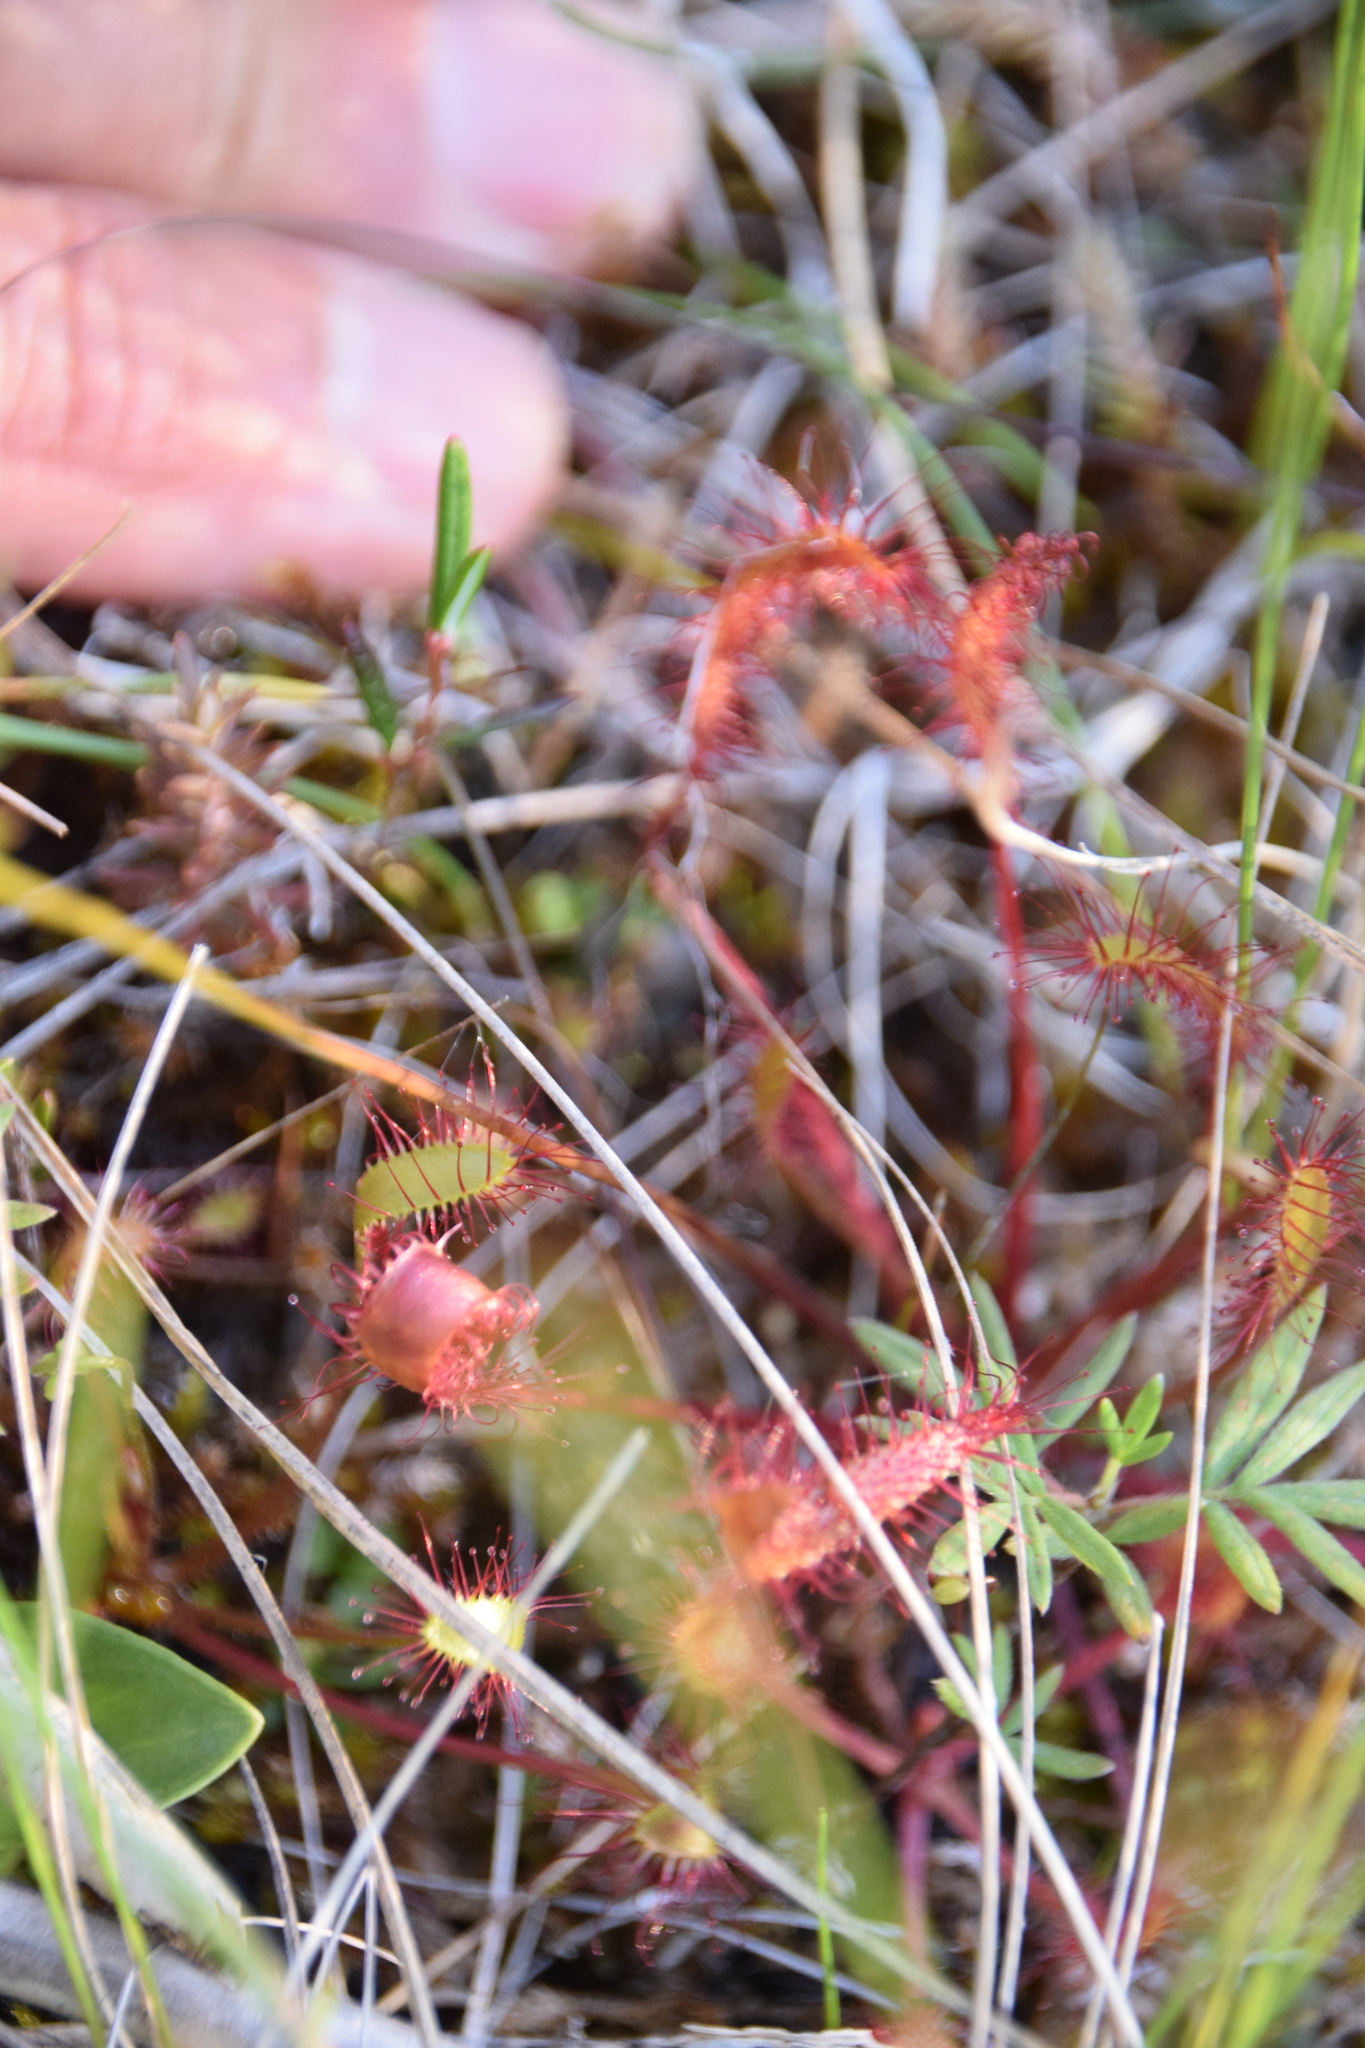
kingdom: Plantae
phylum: Tracheophyta
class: Magnoliopsida
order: Caryophyllales
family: Droseraceae
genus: Drosera
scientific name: Drosera anglica
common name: Great sundew
